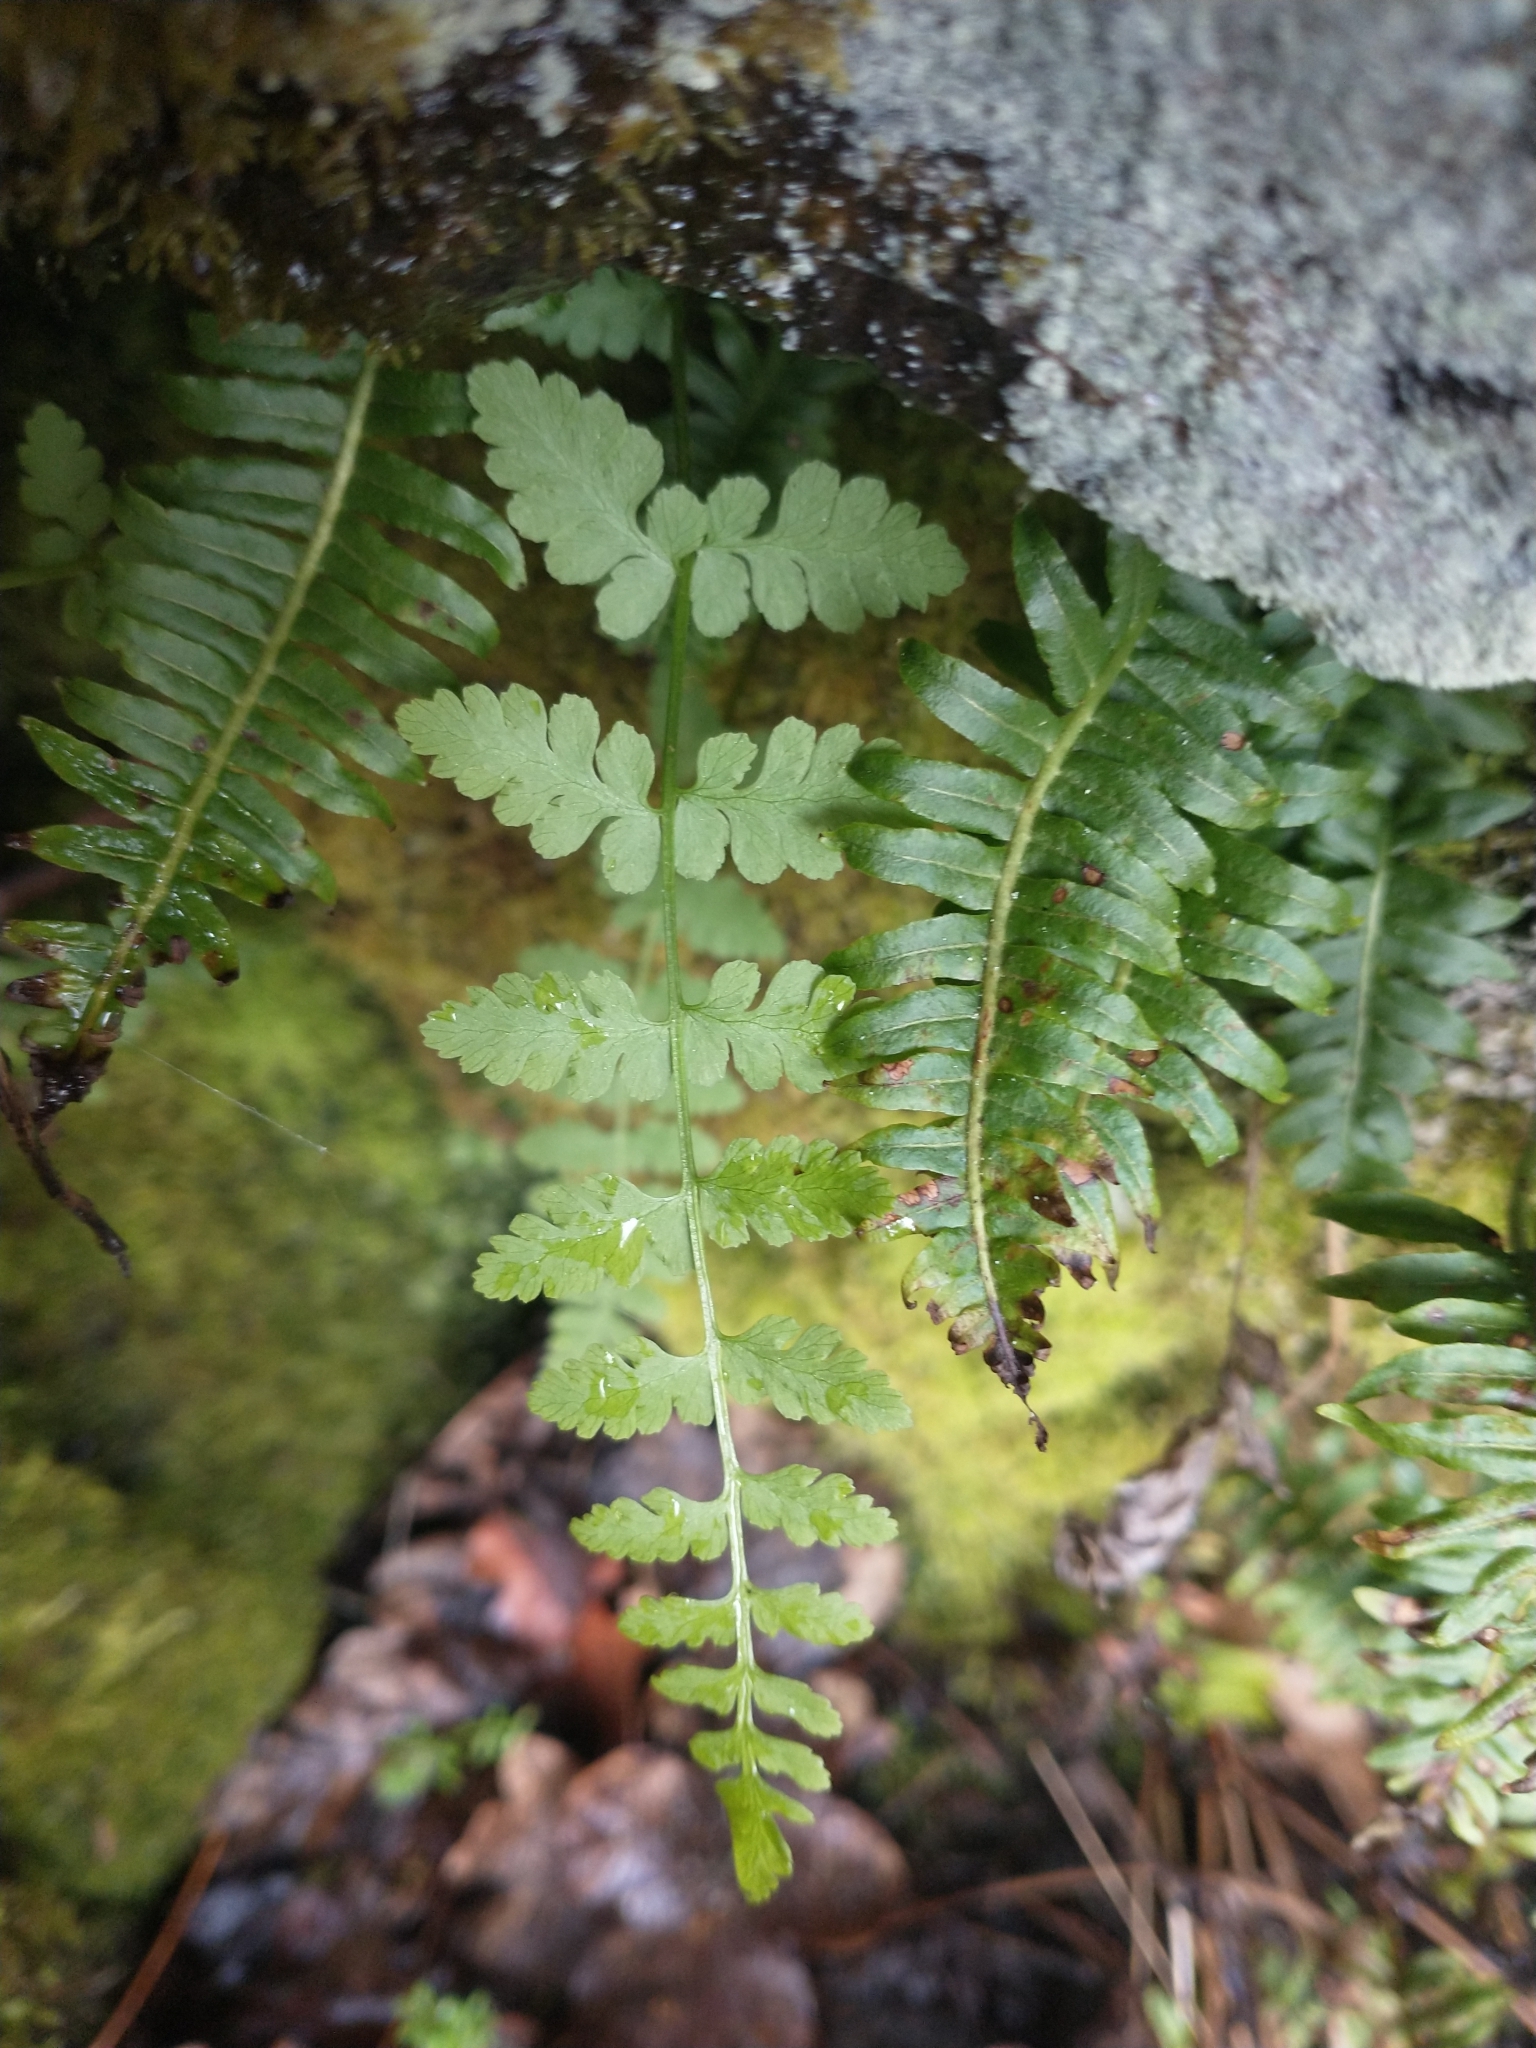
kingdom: Plantae
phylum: Tracheophyta
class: Polypodiopsida
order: Polypodiales
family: Cystopteridaceae
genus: Cystopteris
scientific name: Cystopteris fragilis
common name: Brittle bladder fern
